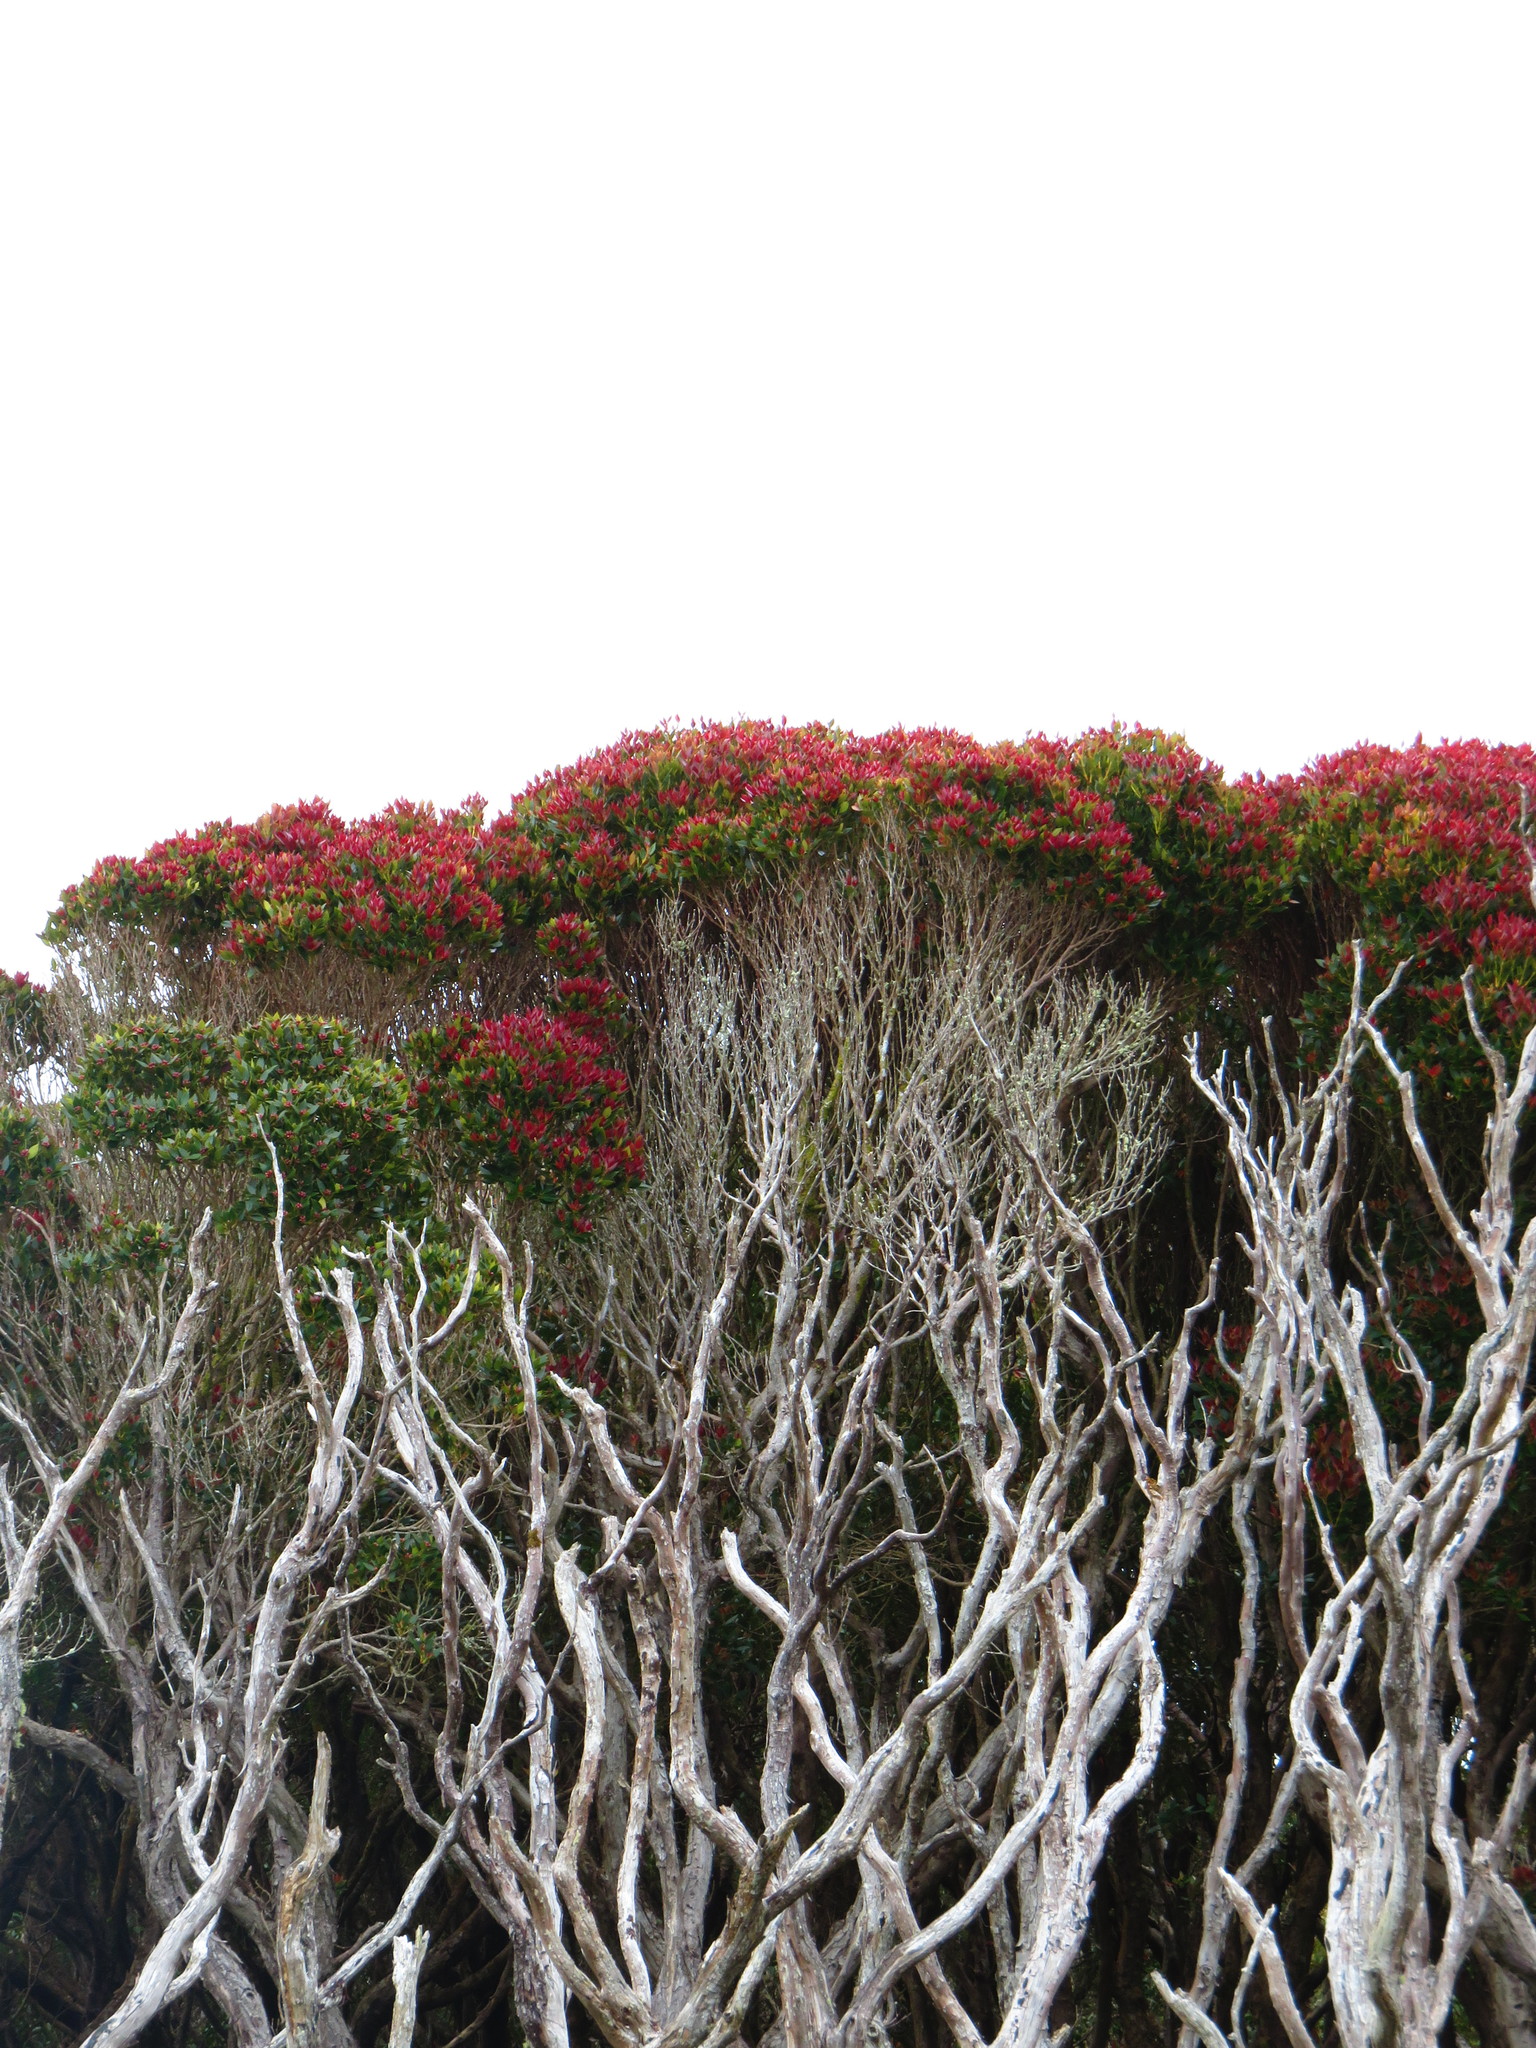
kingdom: Plantae
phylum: Tracheophyta
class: Magnoliopsida
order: Myrtales
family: Myrtaceae
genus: Metrosideros
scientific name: Metrosideros umbellata
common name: Southern rata
